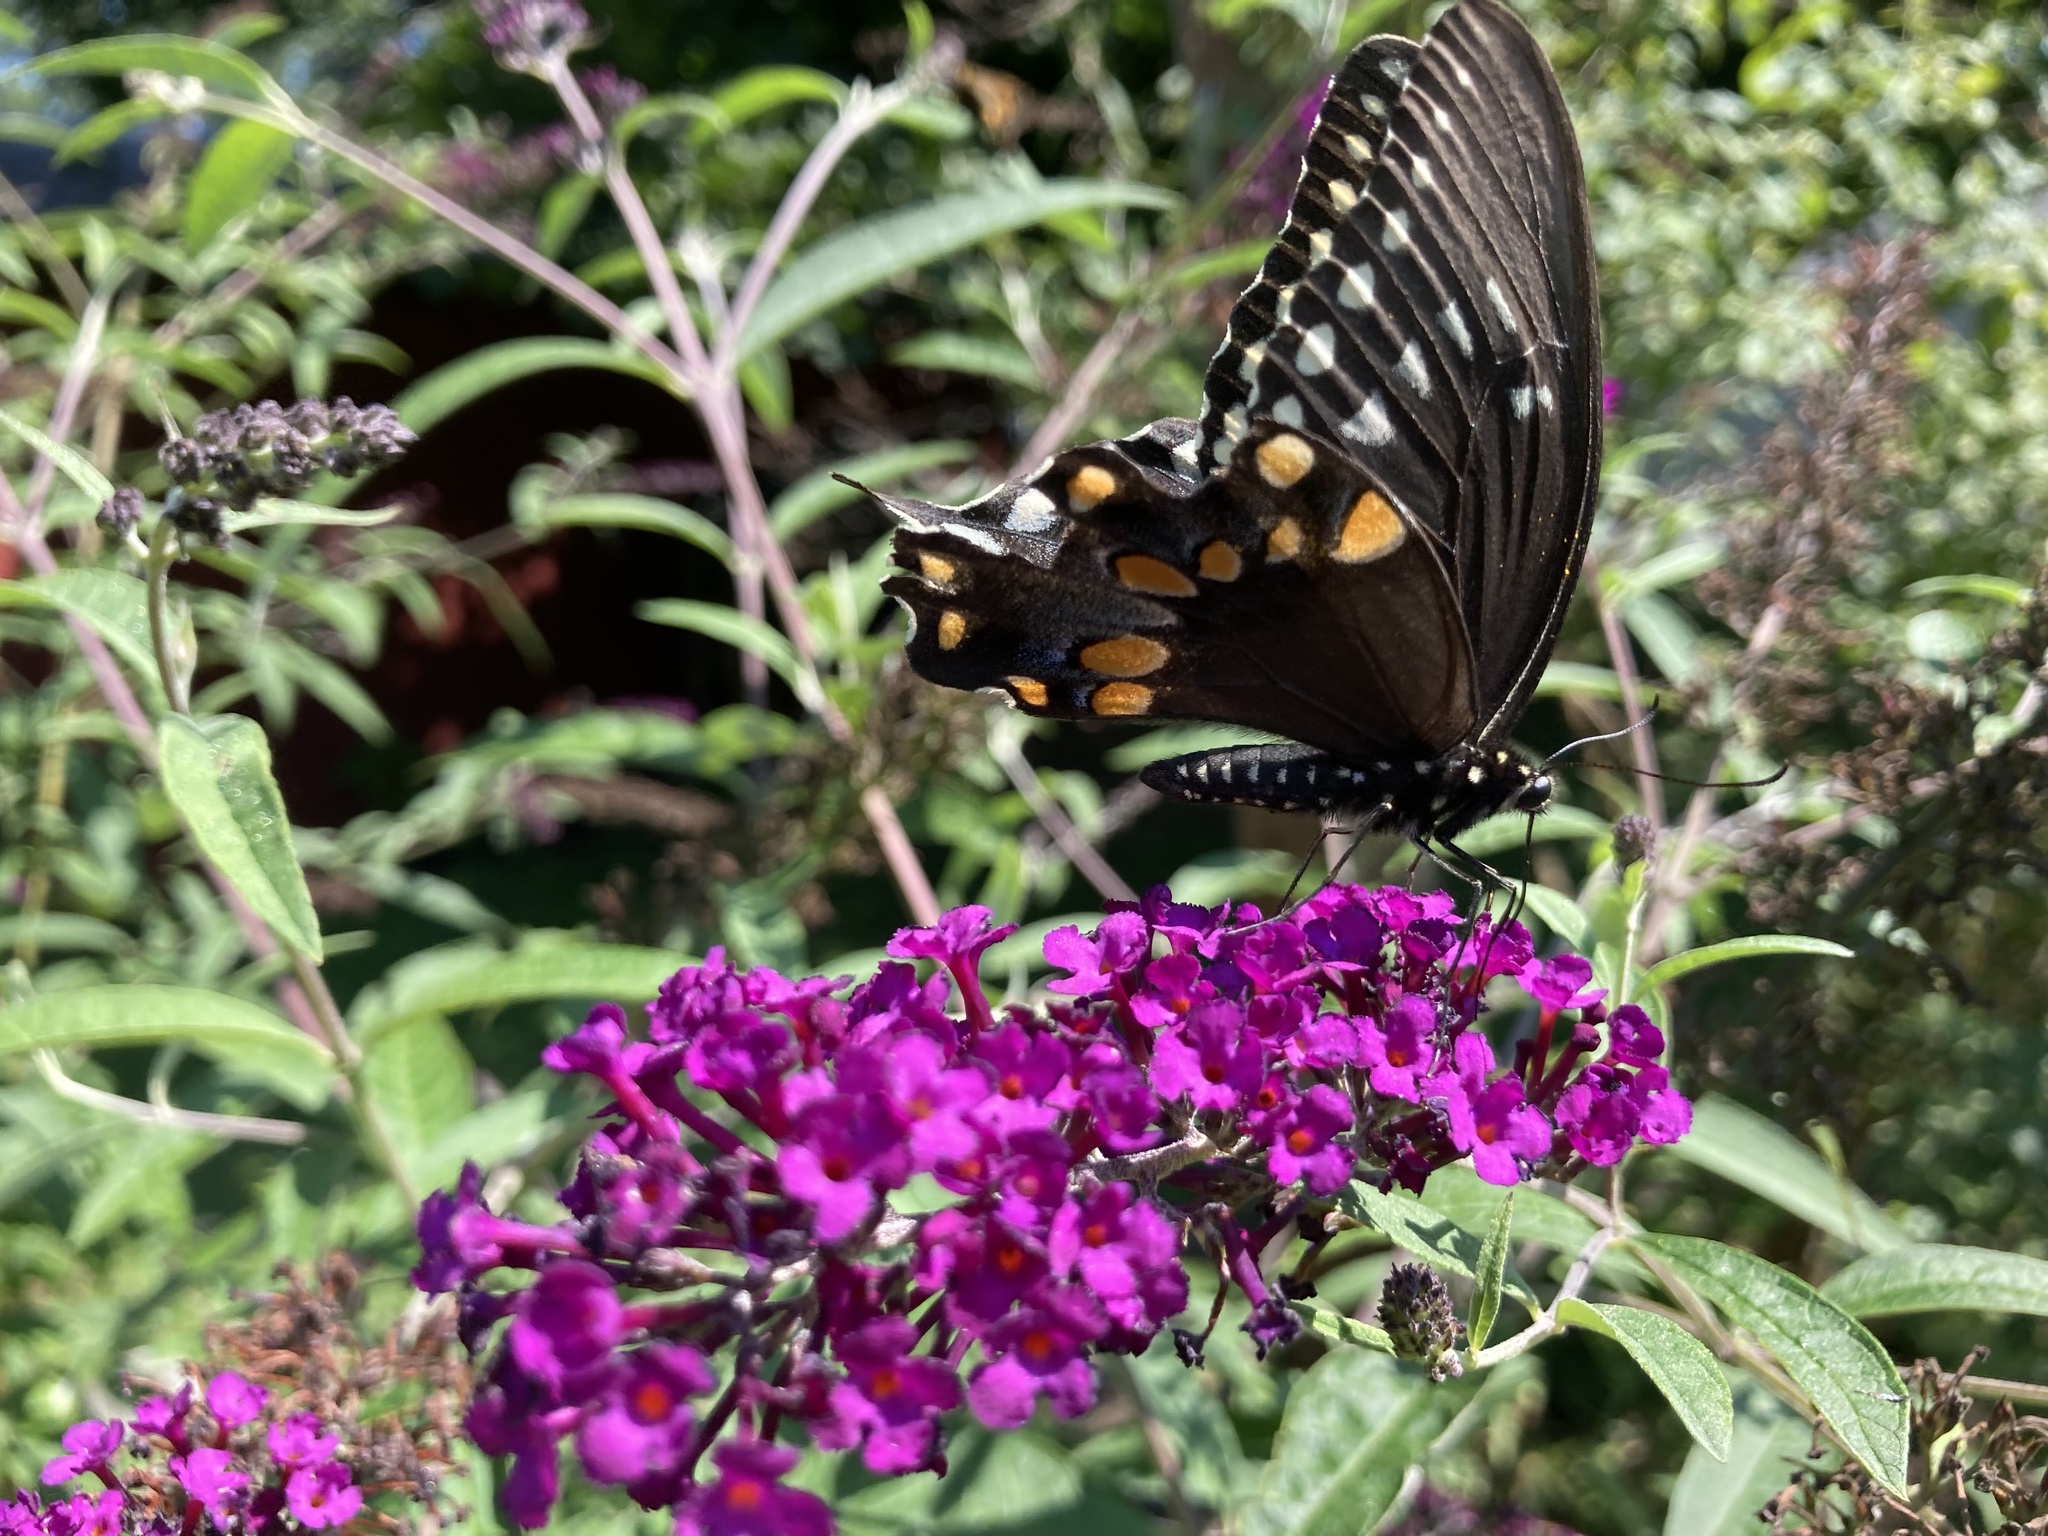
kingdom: Animalia
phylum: Arthropoda
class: Insecta
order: Lepidoptera
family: Papilionidae
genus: Papilio
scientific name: Papilio troilus
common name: Spicebush swallowtail
